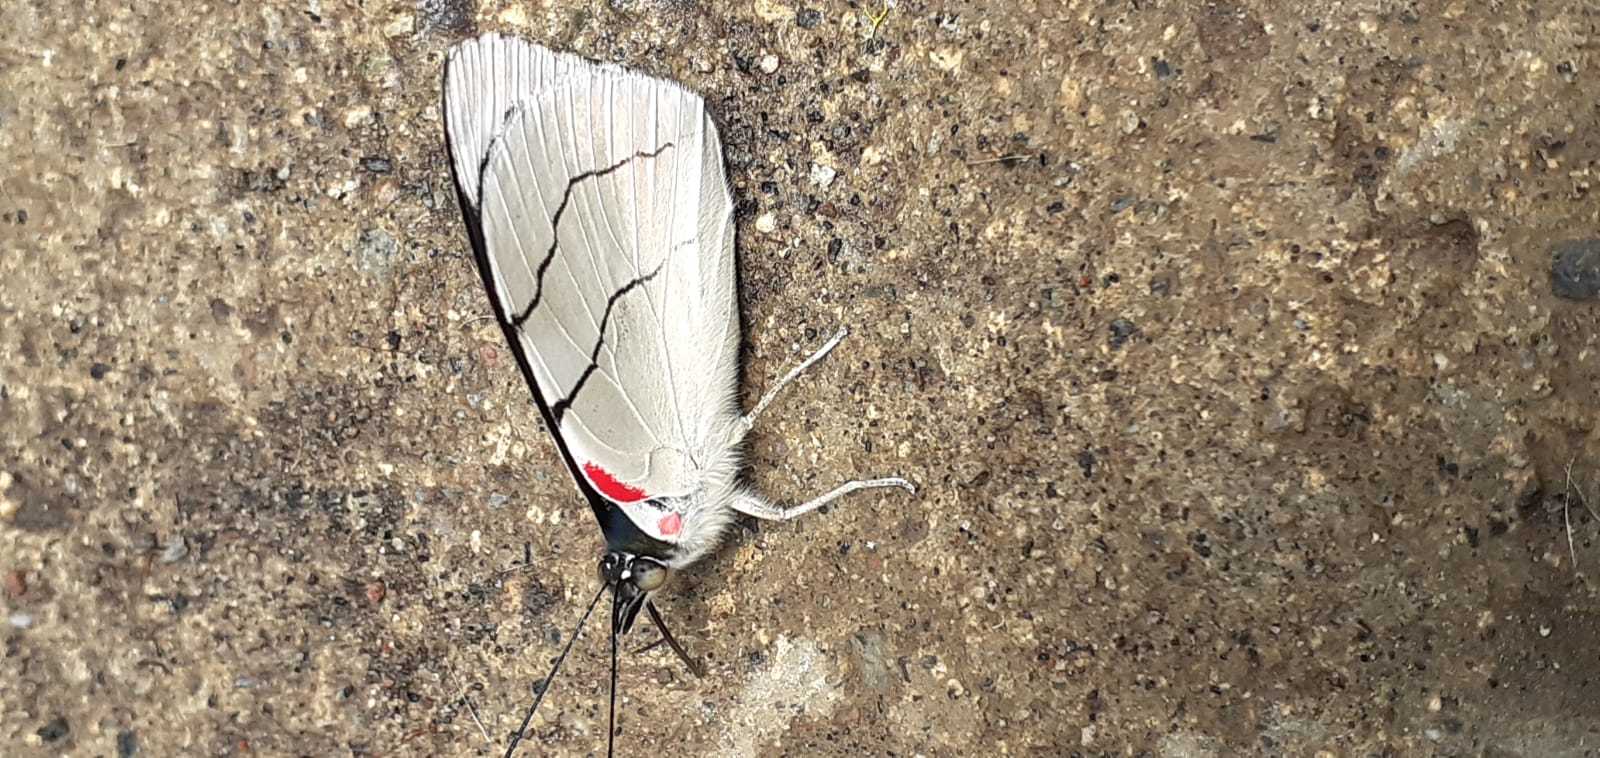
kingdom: Animalia
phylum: Arthropoda
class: Insecta
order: Lepidoptera
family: Nymphalidae
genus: Perisama
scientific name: Perisama bomplandii
